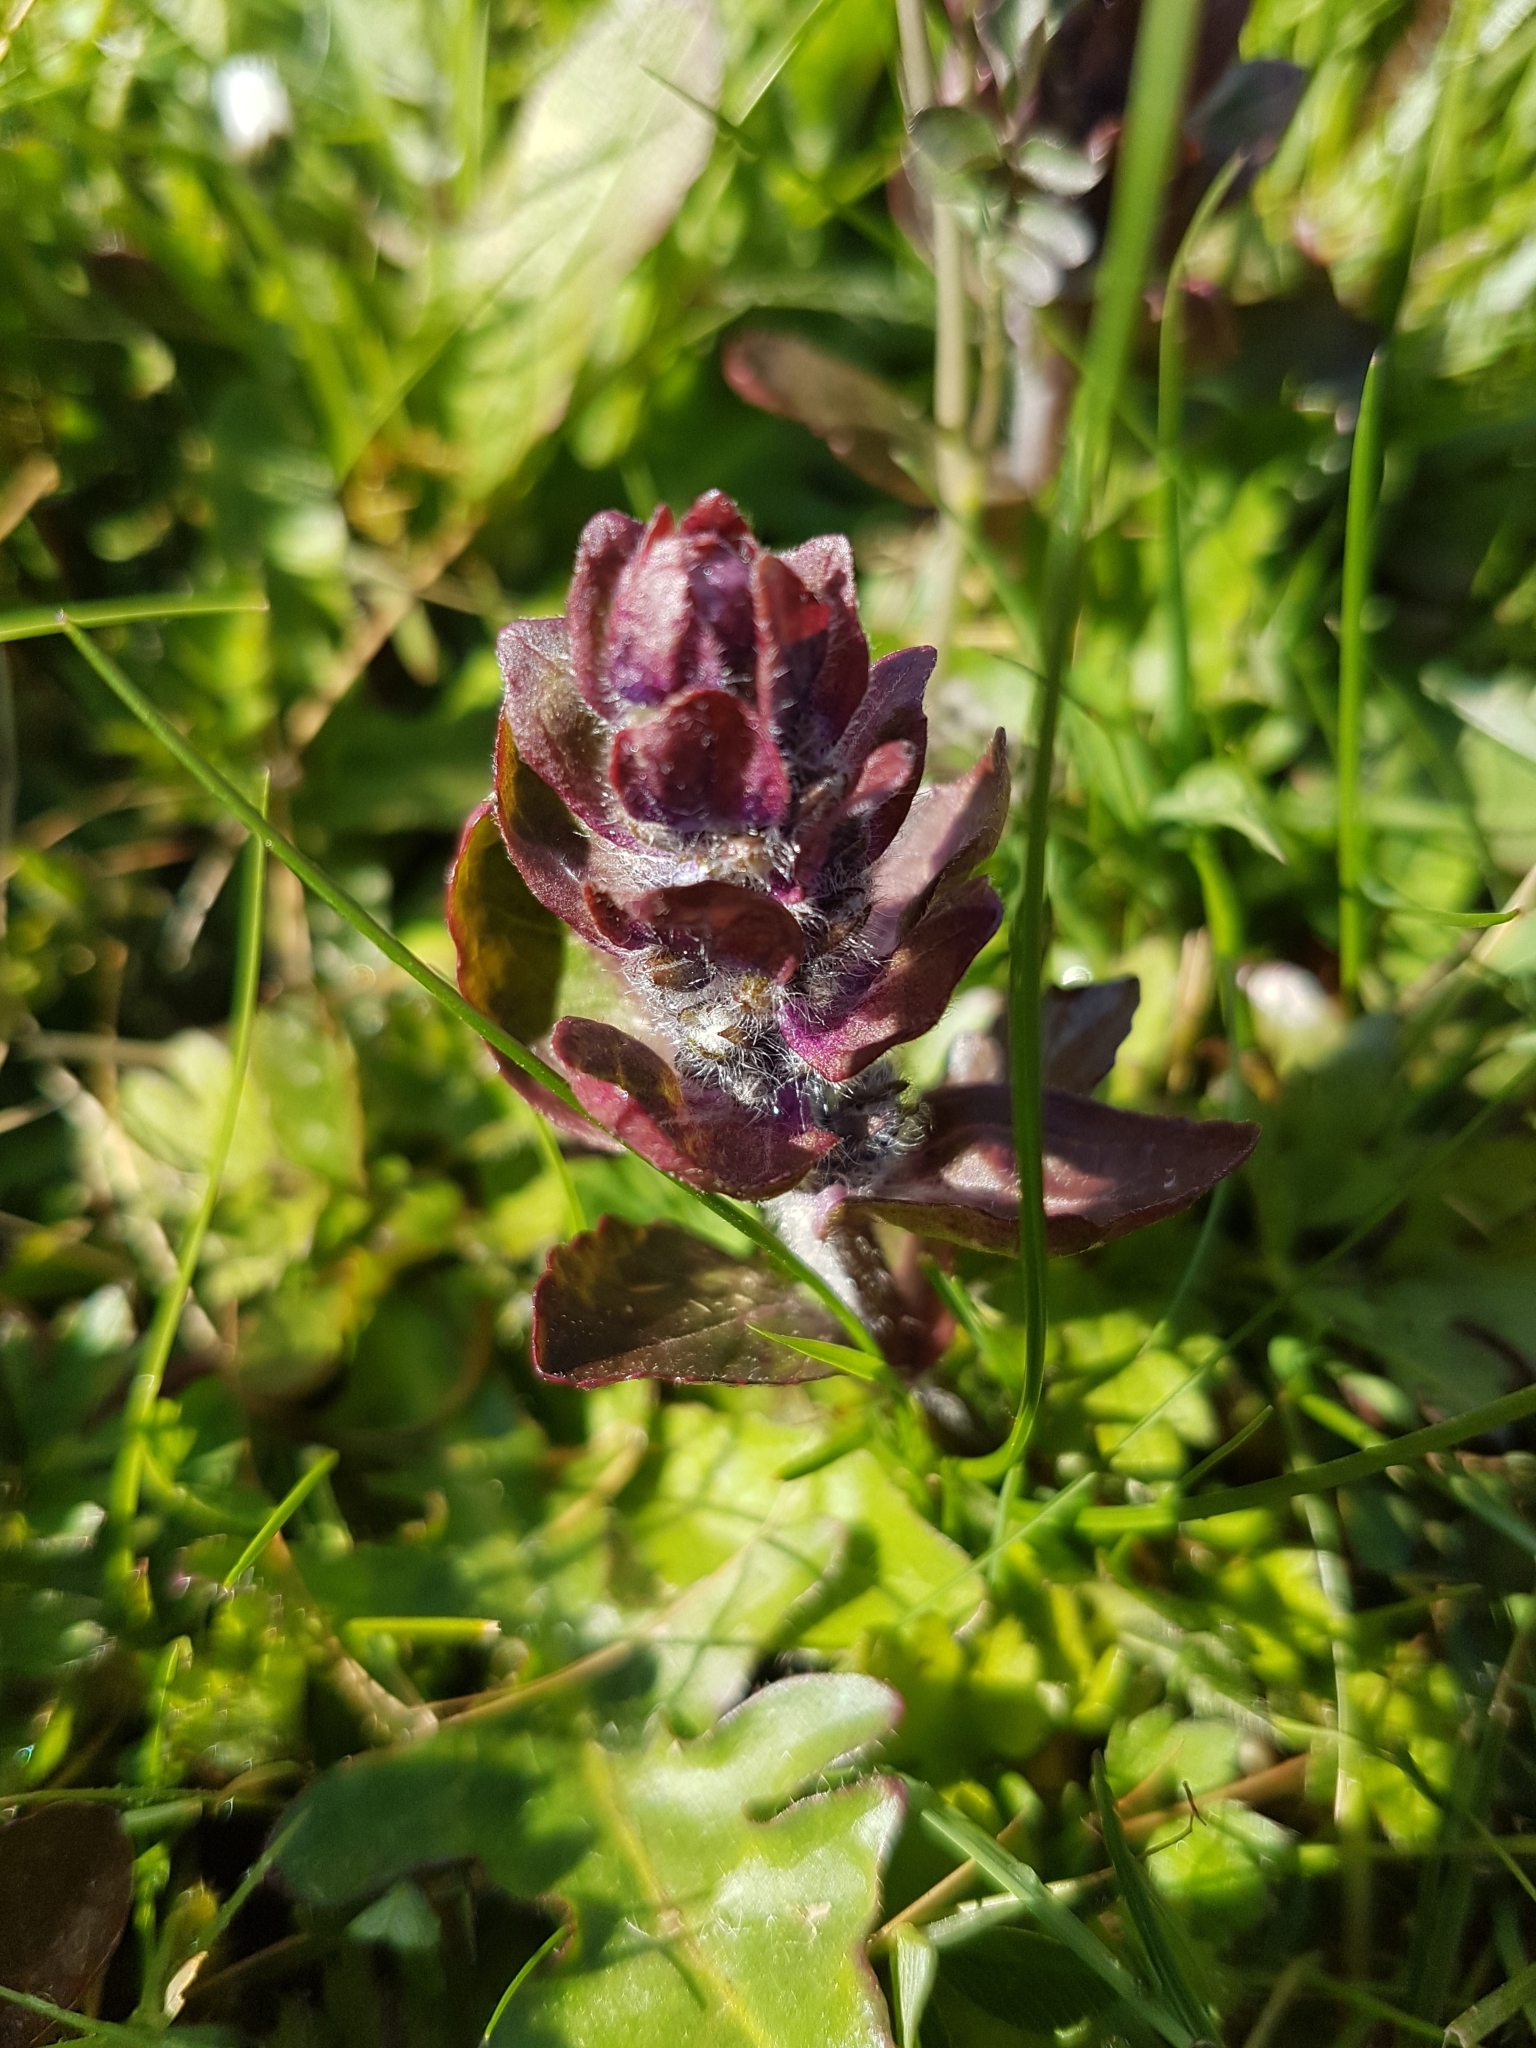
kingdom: Plantae
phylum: Tracheophyta
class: Magnoliopsida
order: Lamiales
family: Lamiaceae
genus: Ajuga
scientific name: Ajuga reptans
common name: Bugle
